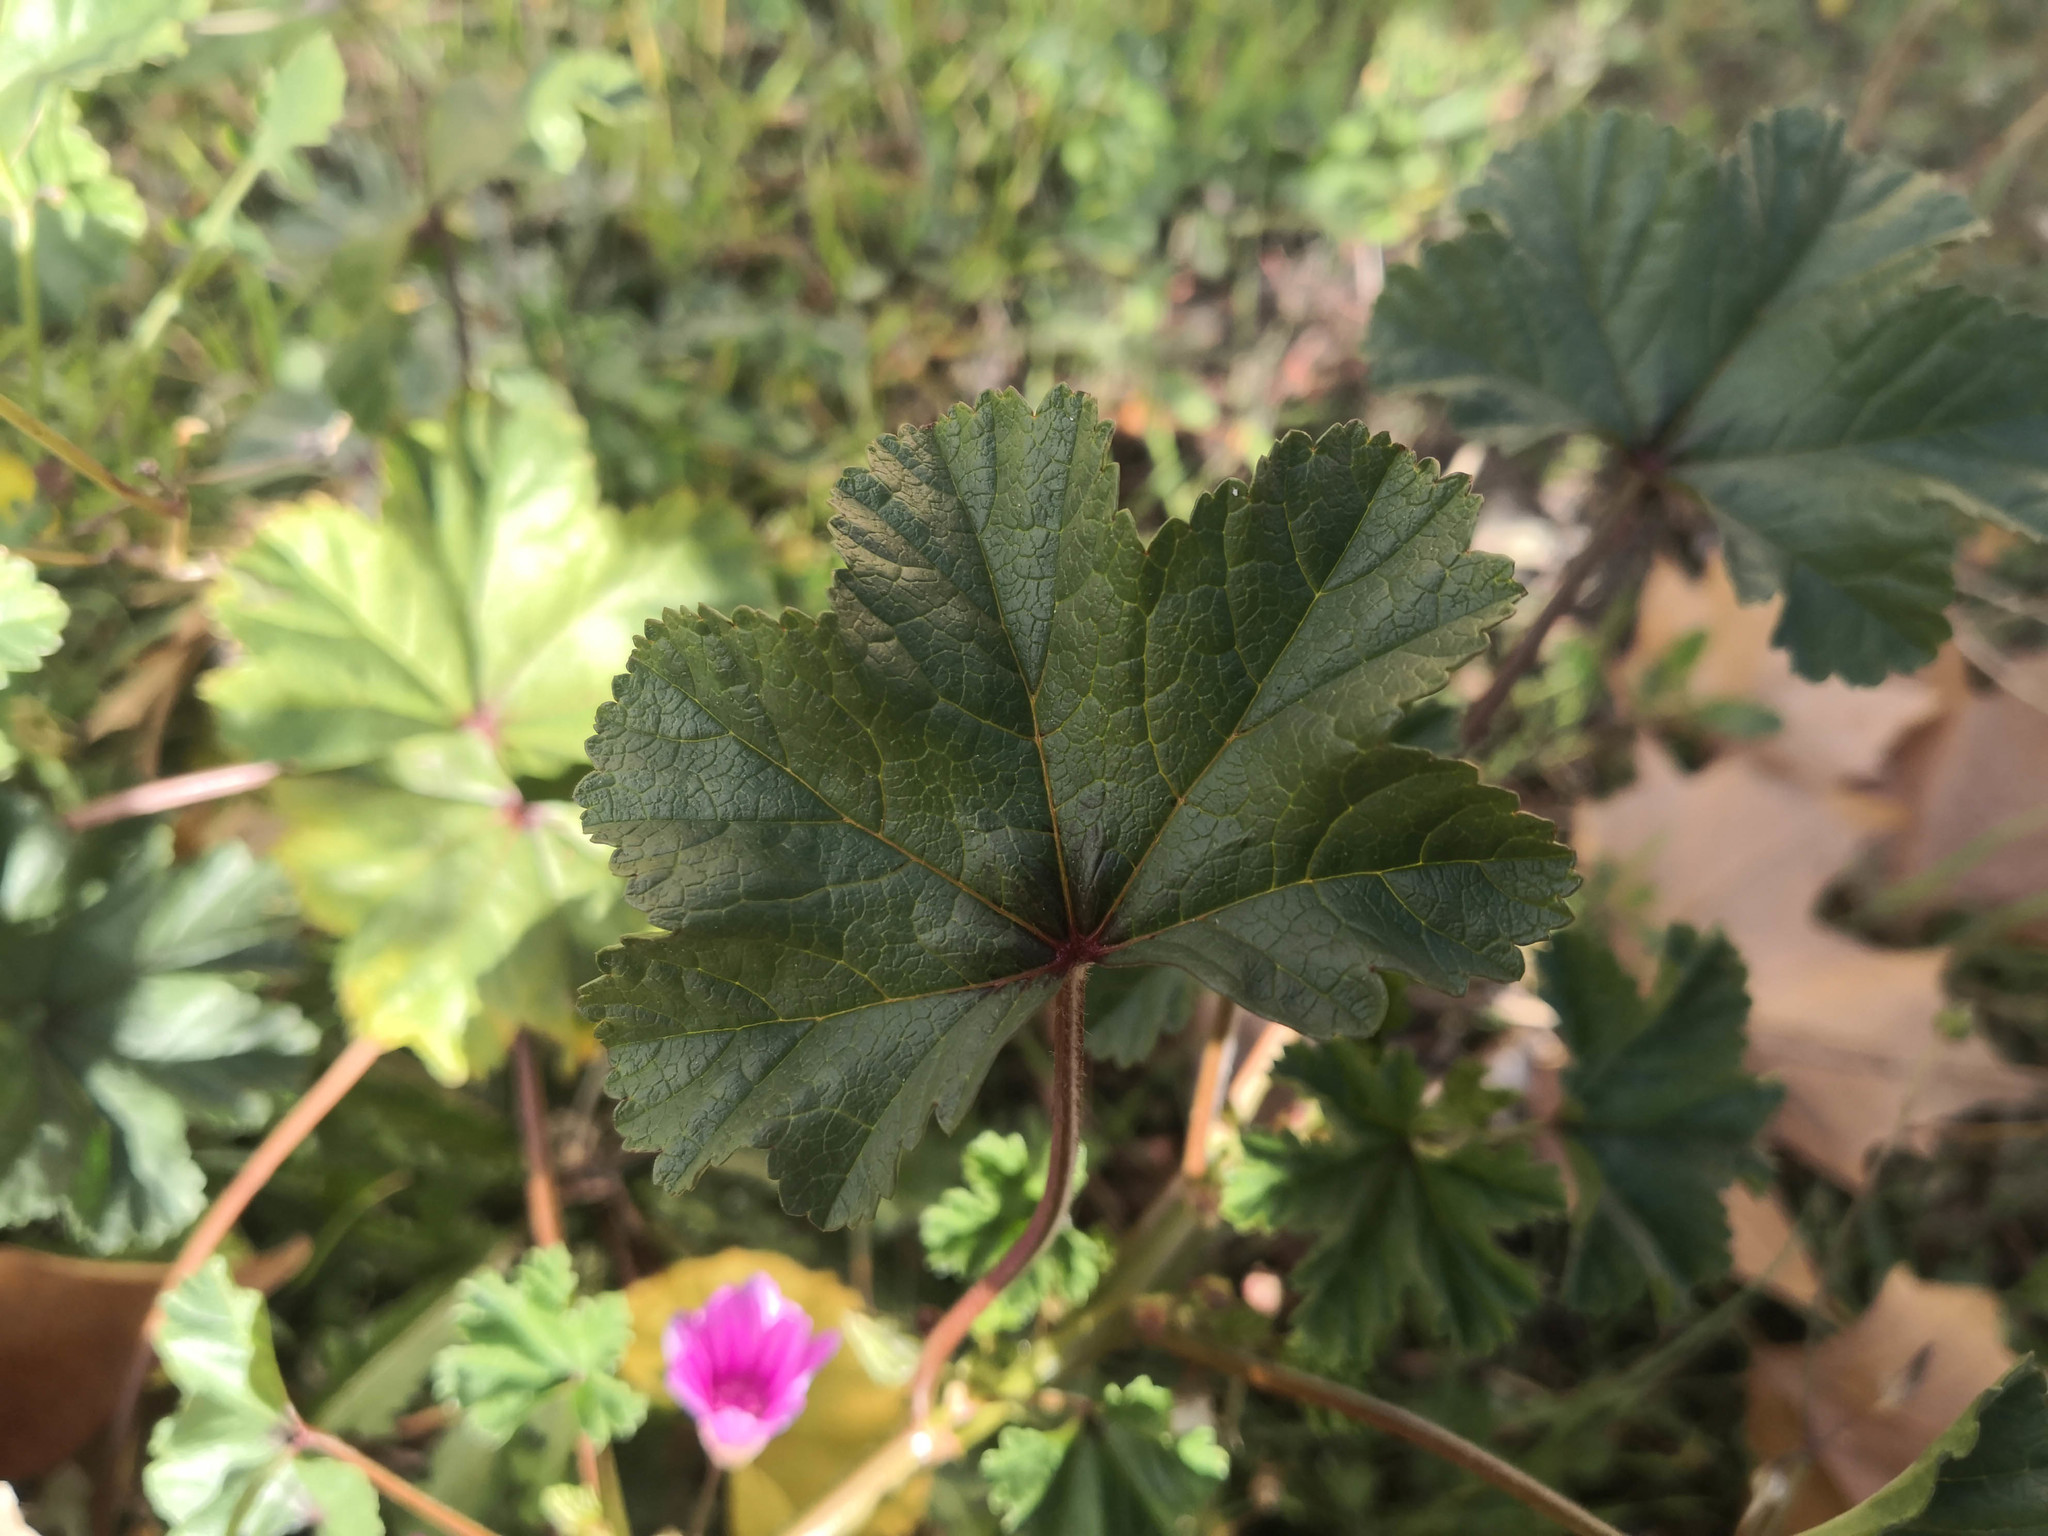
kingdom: Plantae
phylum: Tracheophyta
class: Magnoliopsida
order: Malvales
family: Malvaceae
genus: Malva
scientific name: Malva sylvestris
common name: Common mallow
